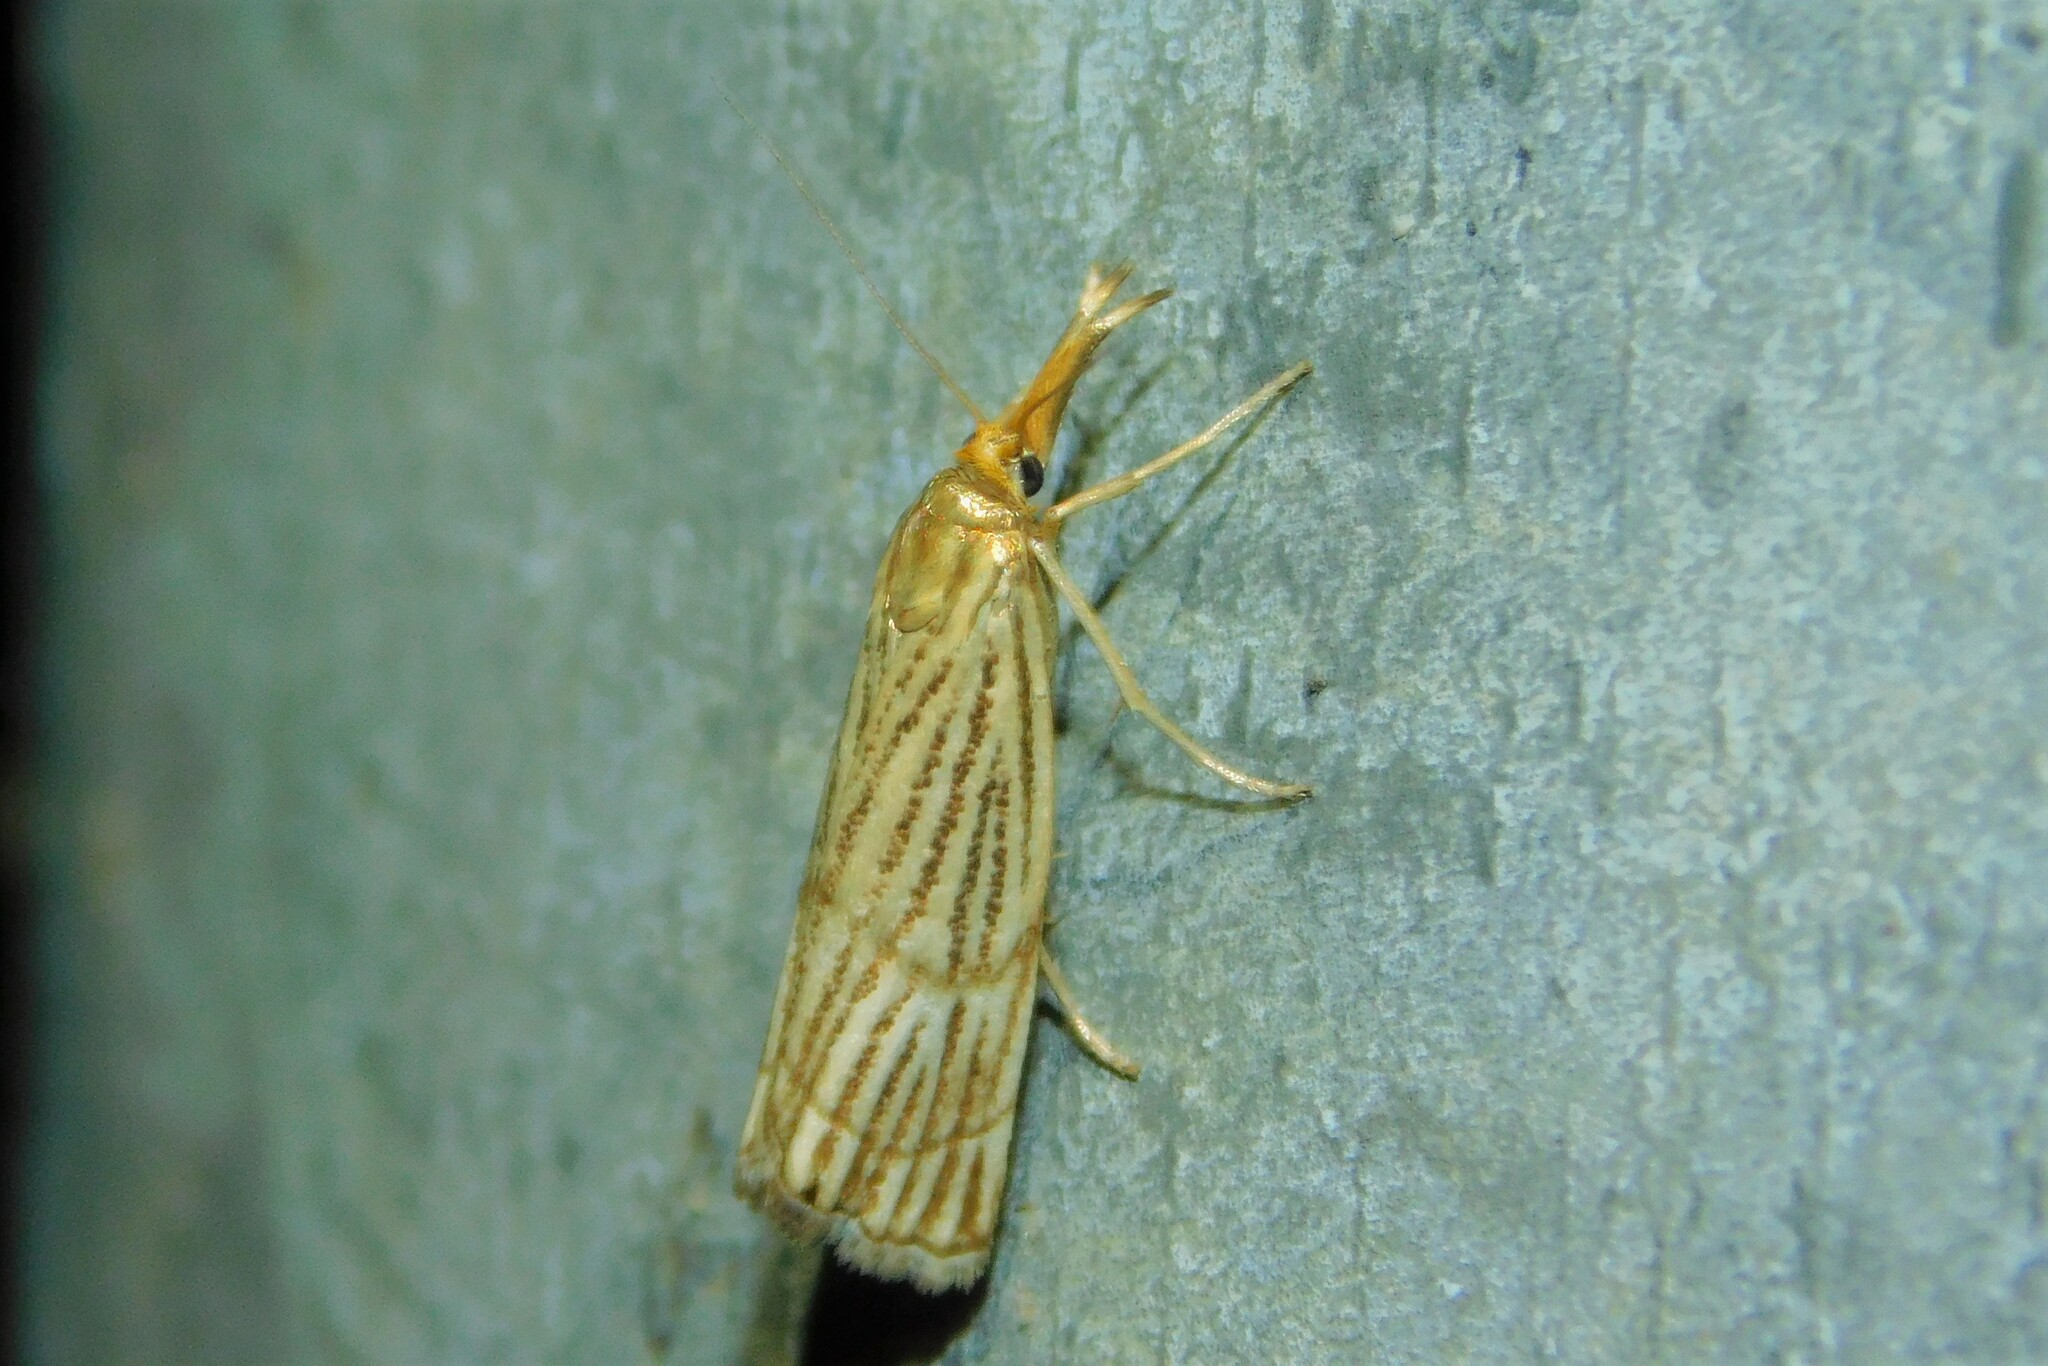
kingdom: Animalia
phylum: Arthropoda
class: Insecta
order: Lepidoptera
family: Crambidae
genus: Chrysocrambus
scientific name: Chrysocrambus linetella
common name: Orange-bar grass-veneer
